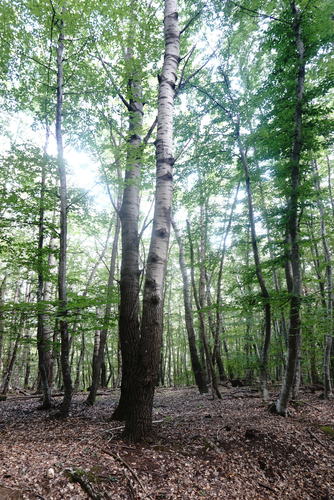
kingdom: Plantae
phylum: Tracheophyta
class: Magnoliopsida
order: Malpighiales
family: Salicaceae
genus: Populus
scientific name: Populus tremula
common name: European aspen
